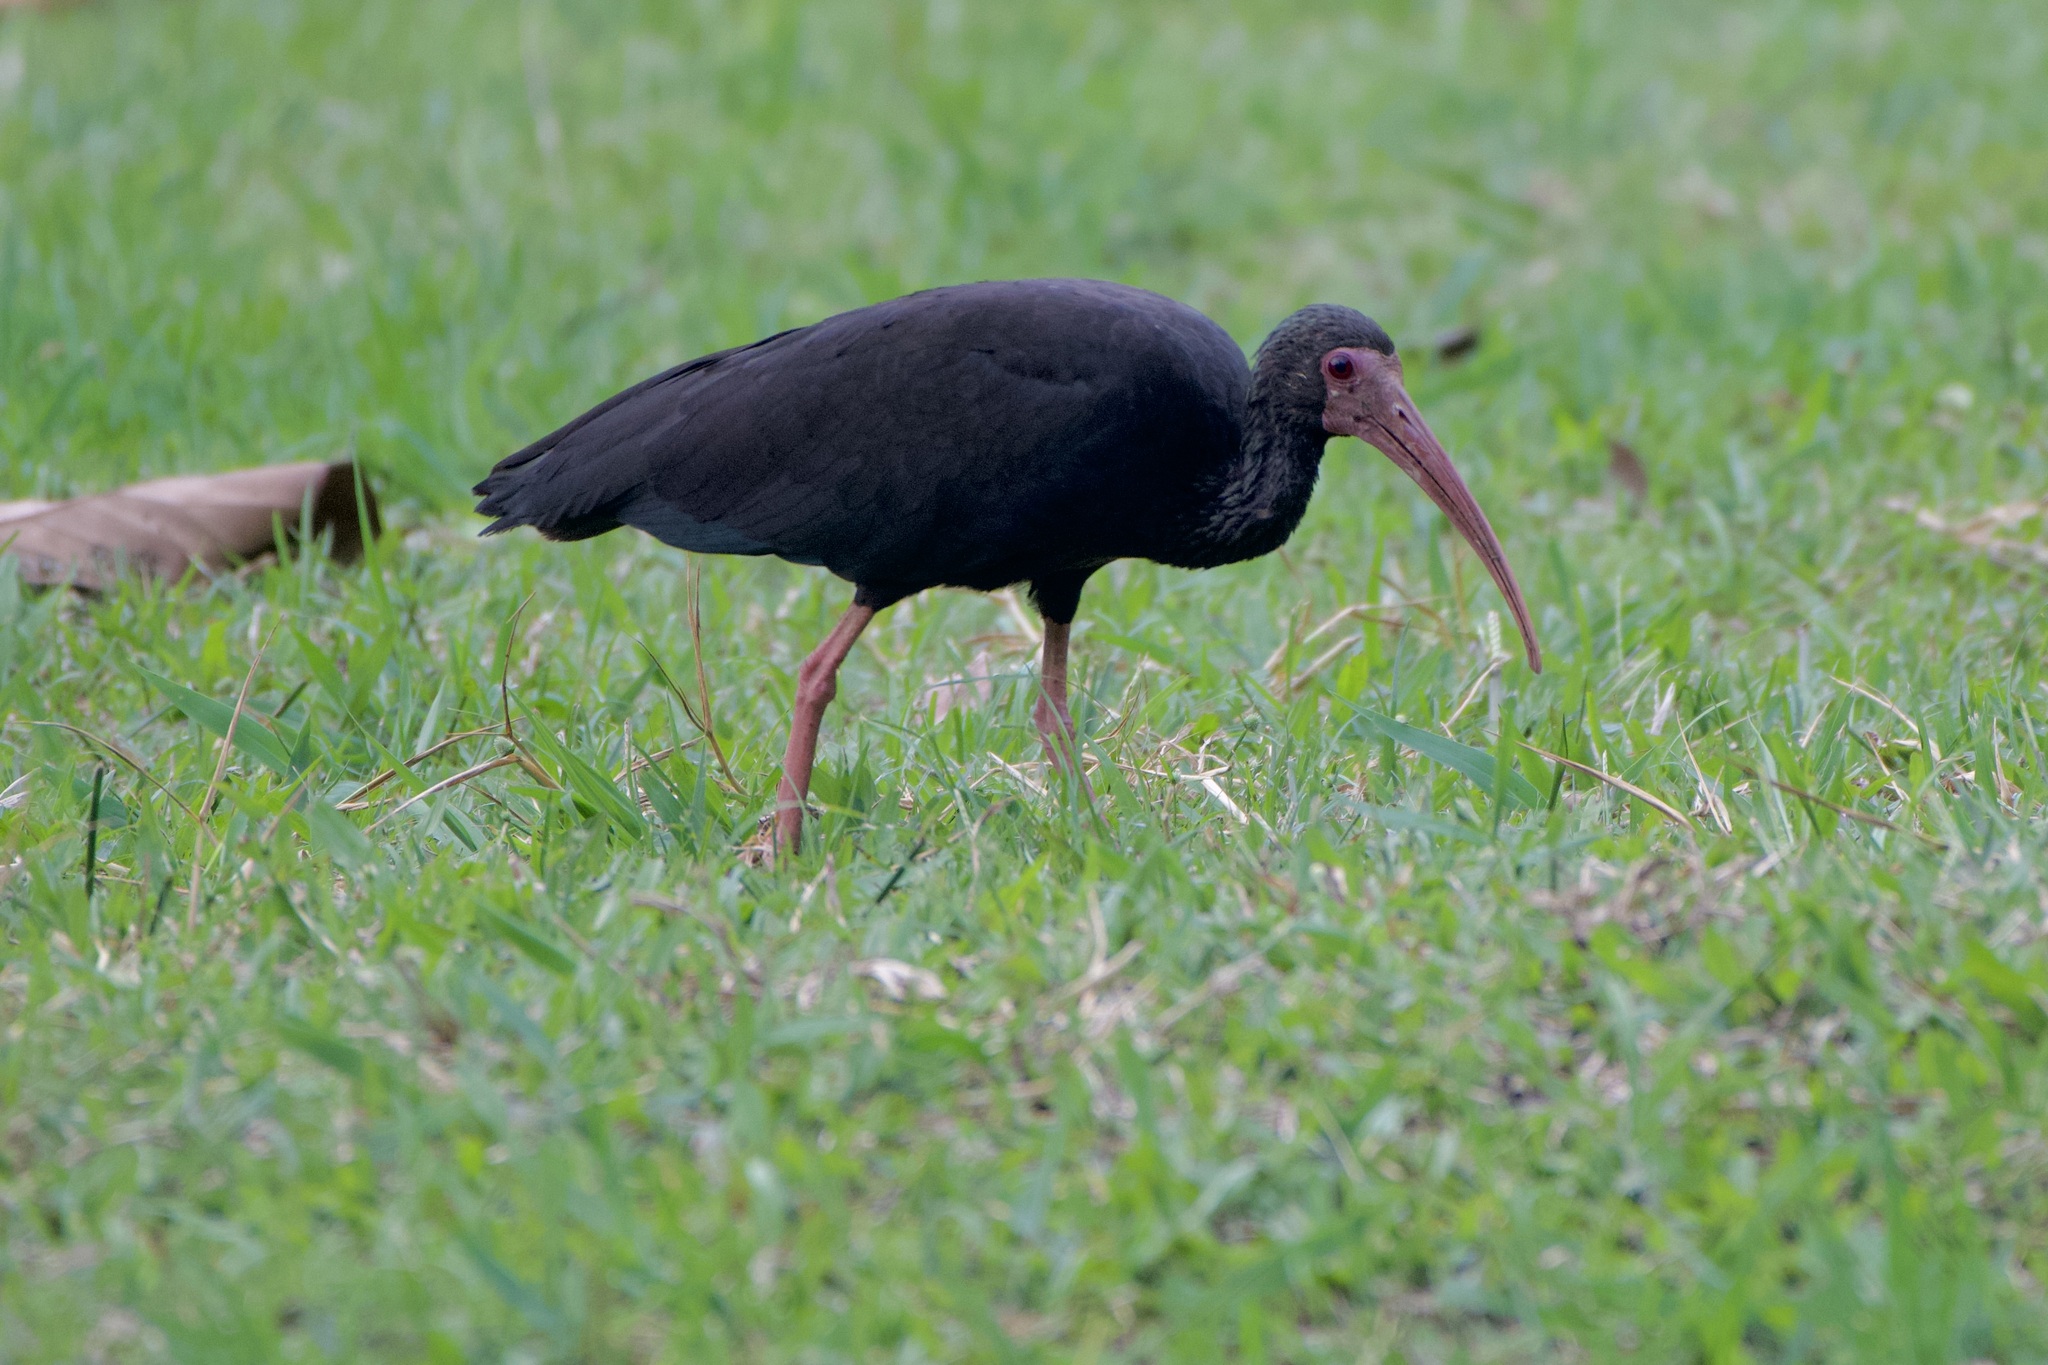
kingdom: Animalia
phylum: Chordata
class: Aves
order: Pelecaniformes
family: Threskiornithidae
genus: Phimosus
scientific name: Phimosus infuscatus
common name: Bare-faced ibis
